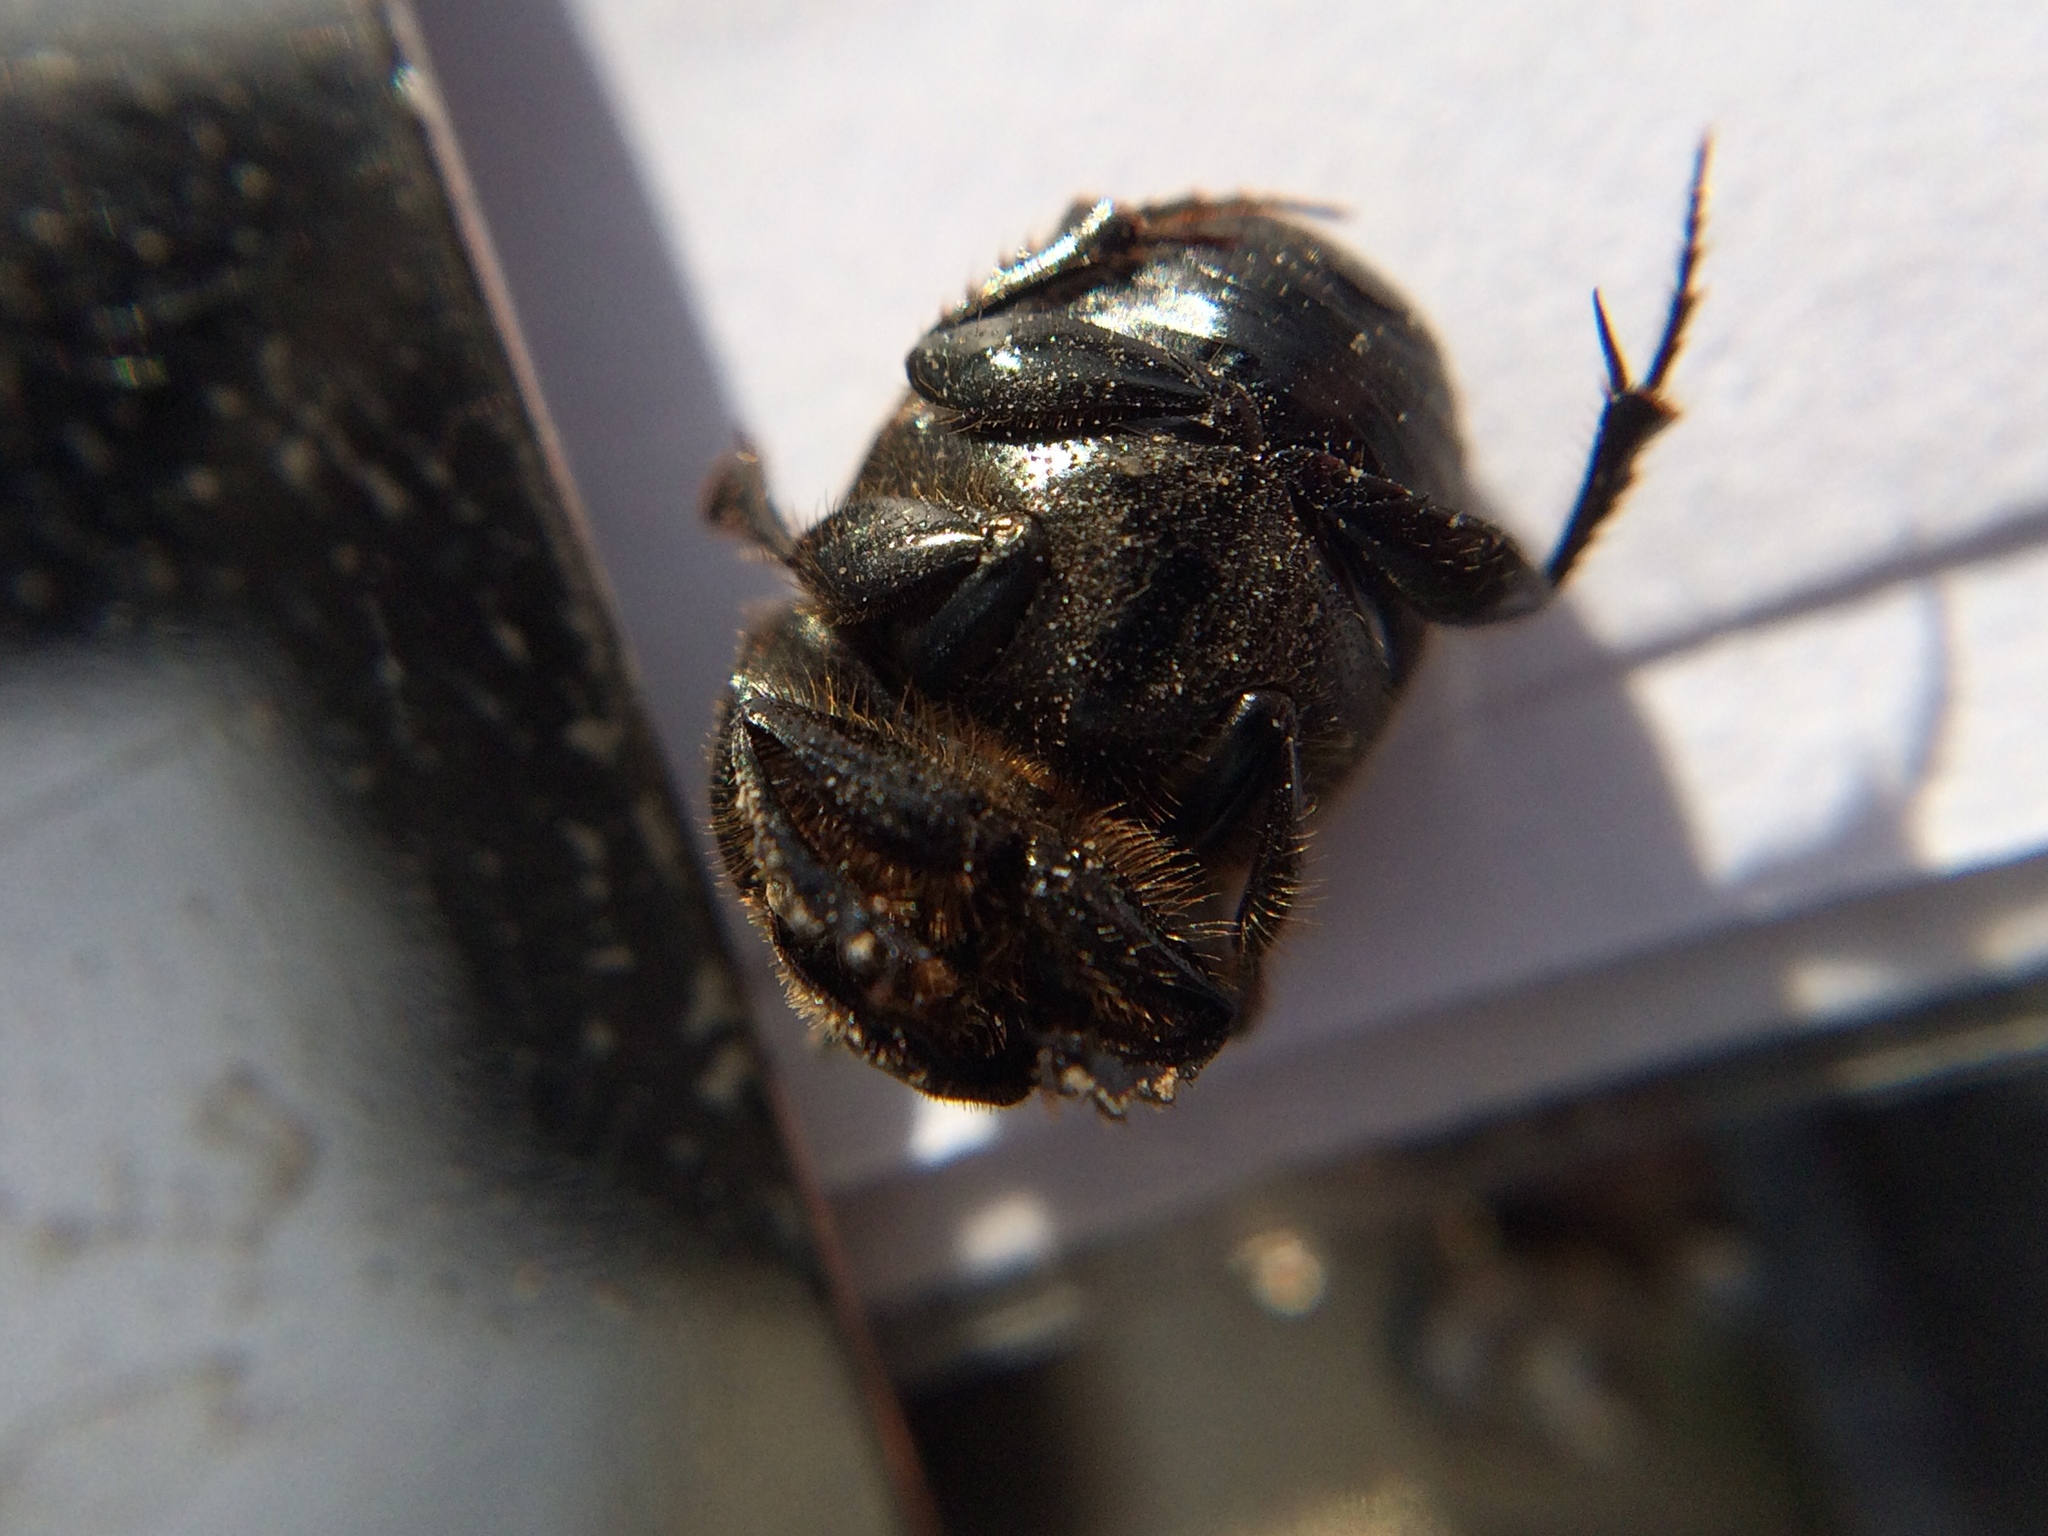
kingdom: Animalia
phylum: Arthropoda
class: Insecta
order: Coleoptera
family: Scarabaeidae
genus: Onthophagus
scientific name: Onthophagus nuchicornis
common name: Mottled dung beetle
